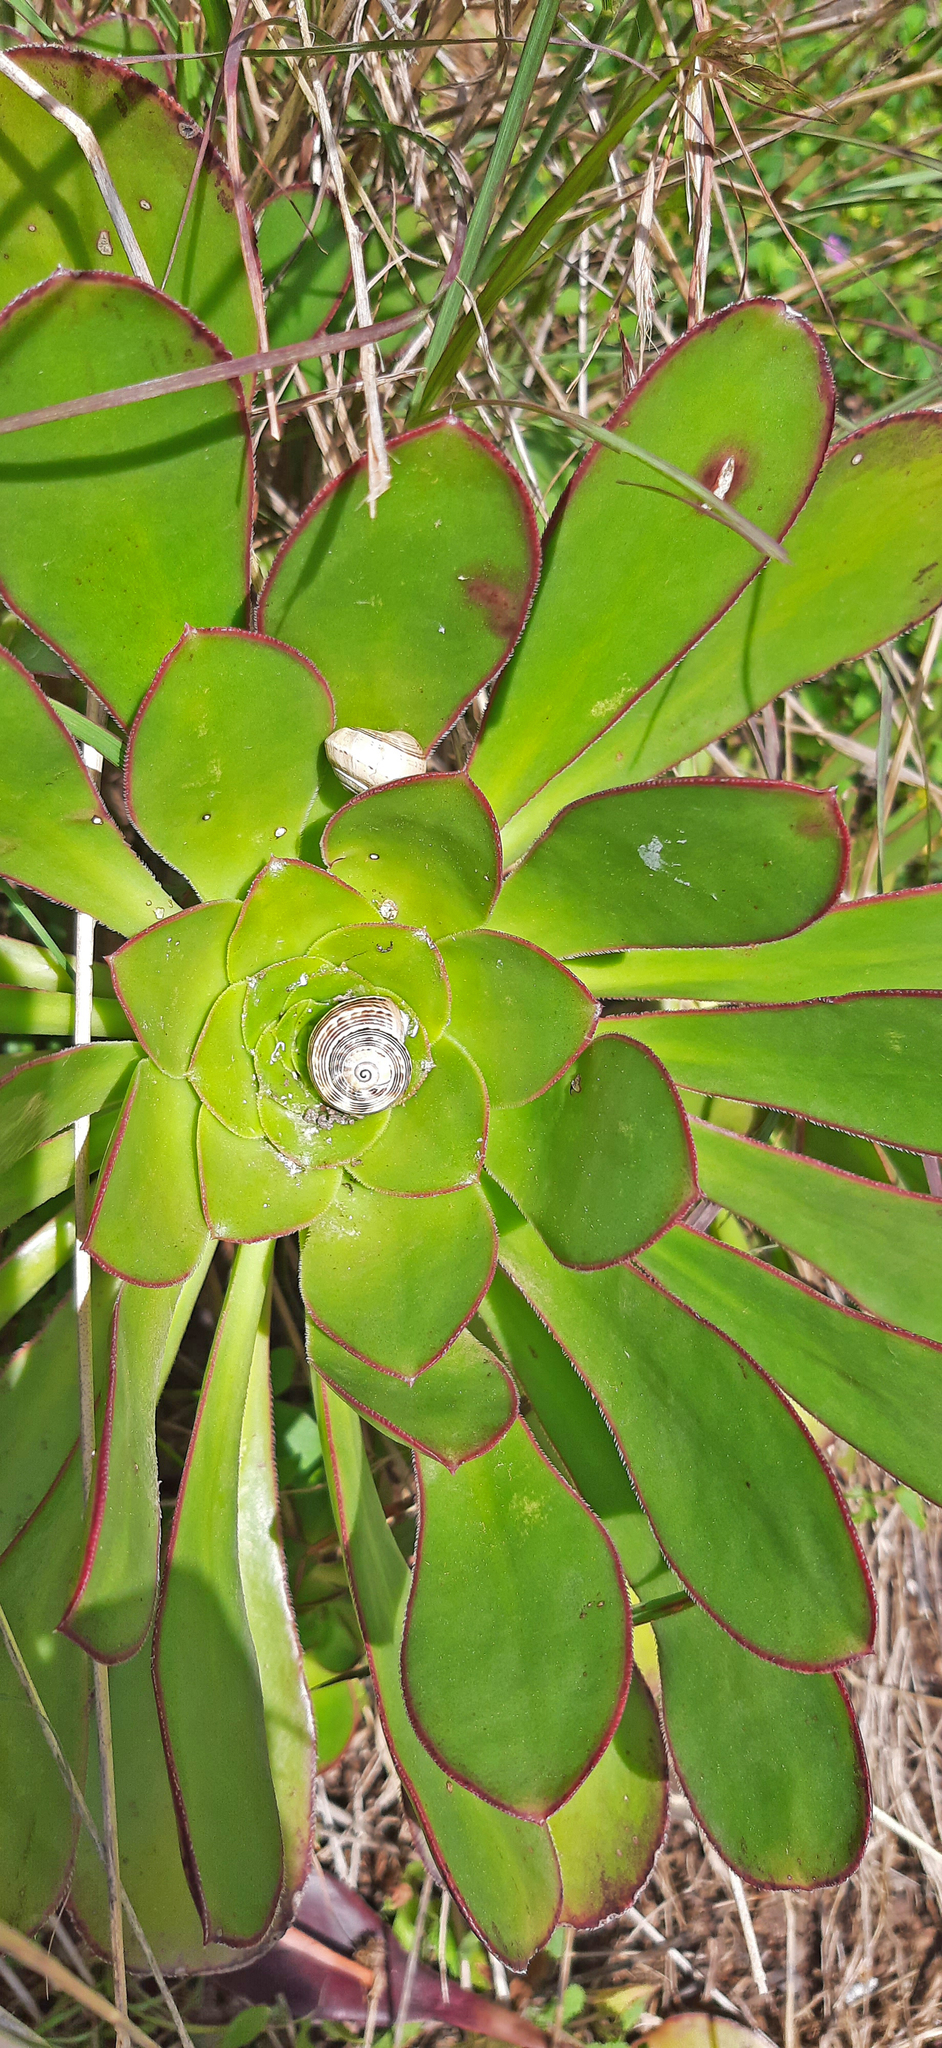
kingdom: Plantae
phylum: Tracheophyta
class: Magnoliopsida
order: Saxifragales
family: Crassulaceae
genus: Aeonium
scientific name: Aeonium arboreum
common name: Tree aeonium
